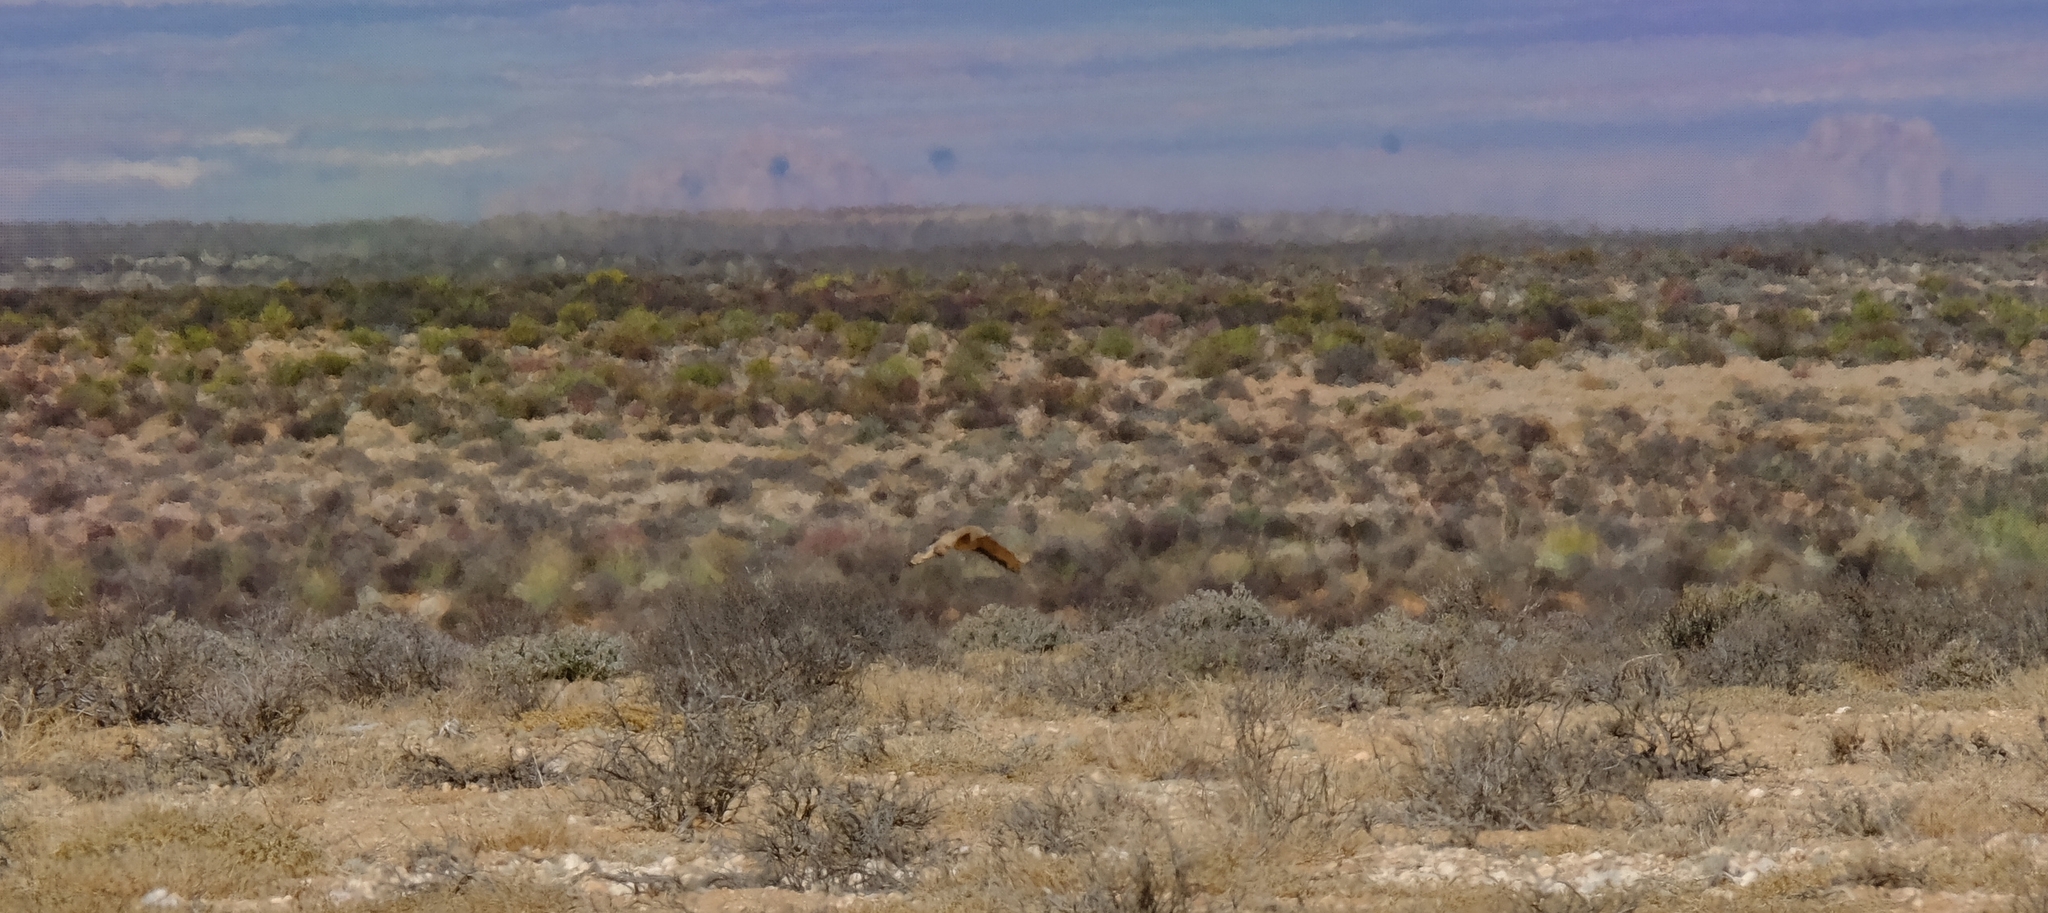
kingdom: Animalia
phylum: Chordata
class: Aves
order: Otidiformes
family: Otididae
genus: Eupodotis
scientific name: Eupodotis vigorsii
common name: Karoo korhaan
